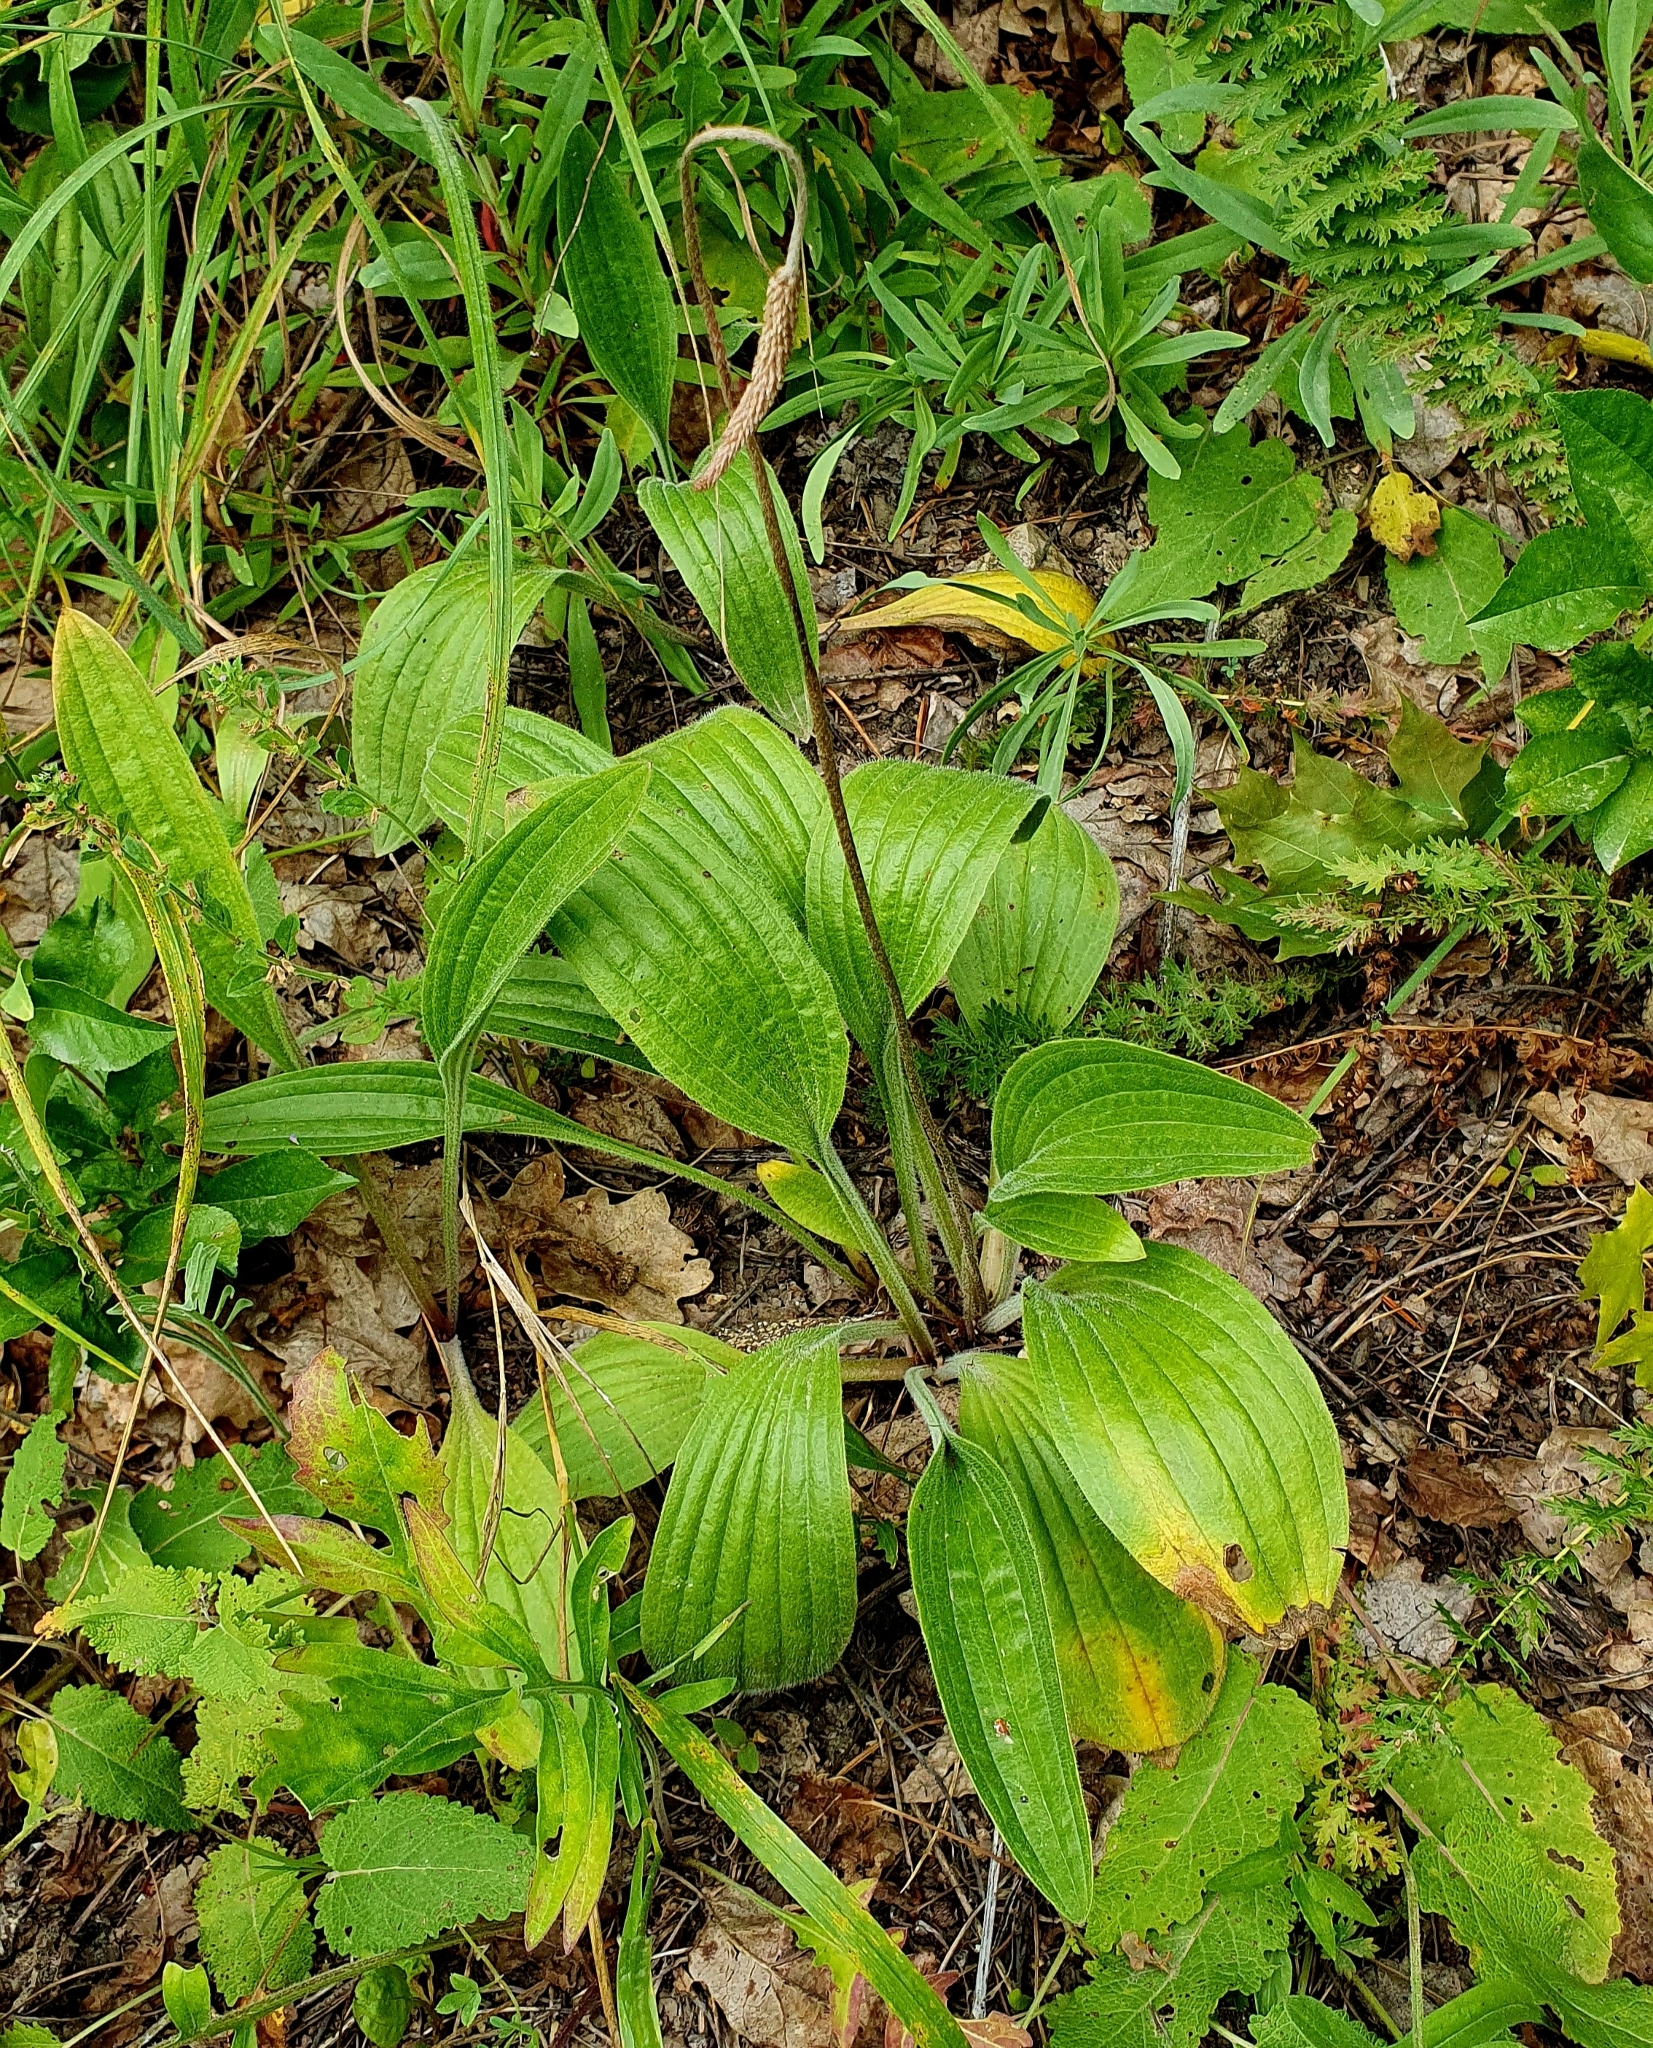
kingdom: Plantae
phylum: Tracheophyta
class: Magnoliopsida
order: Lamiales
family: Plantaginaceae
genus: Plantago
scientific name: Plantago urvillei
